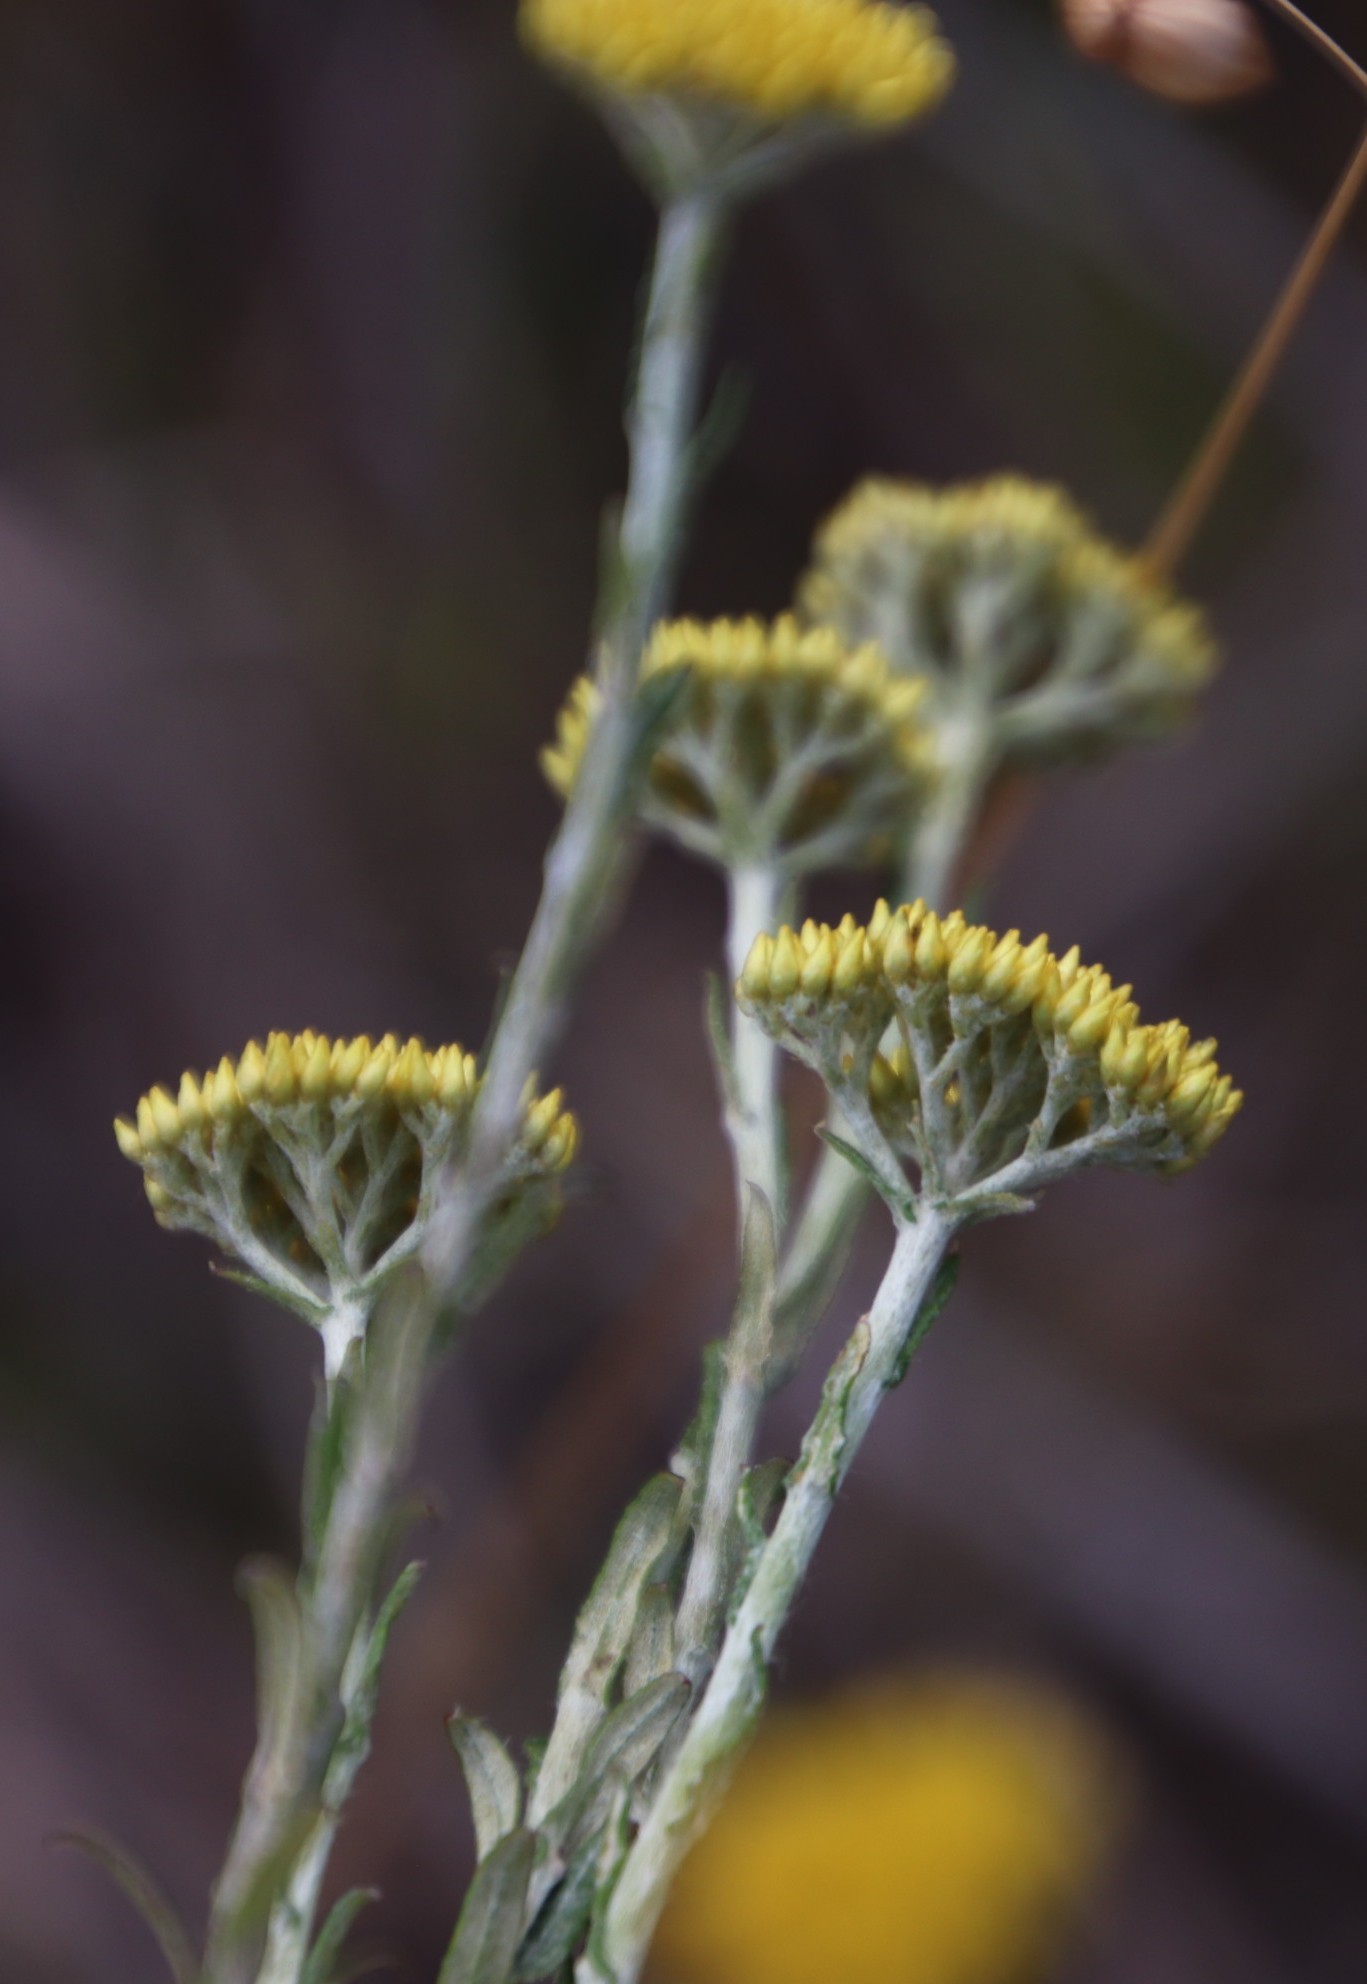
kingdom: Plantae
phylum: Tracheophyta
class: Magnoliopsida
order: Asterales
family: Asteraceae
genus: Helichrysum
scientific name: Helichrysum cymosum
